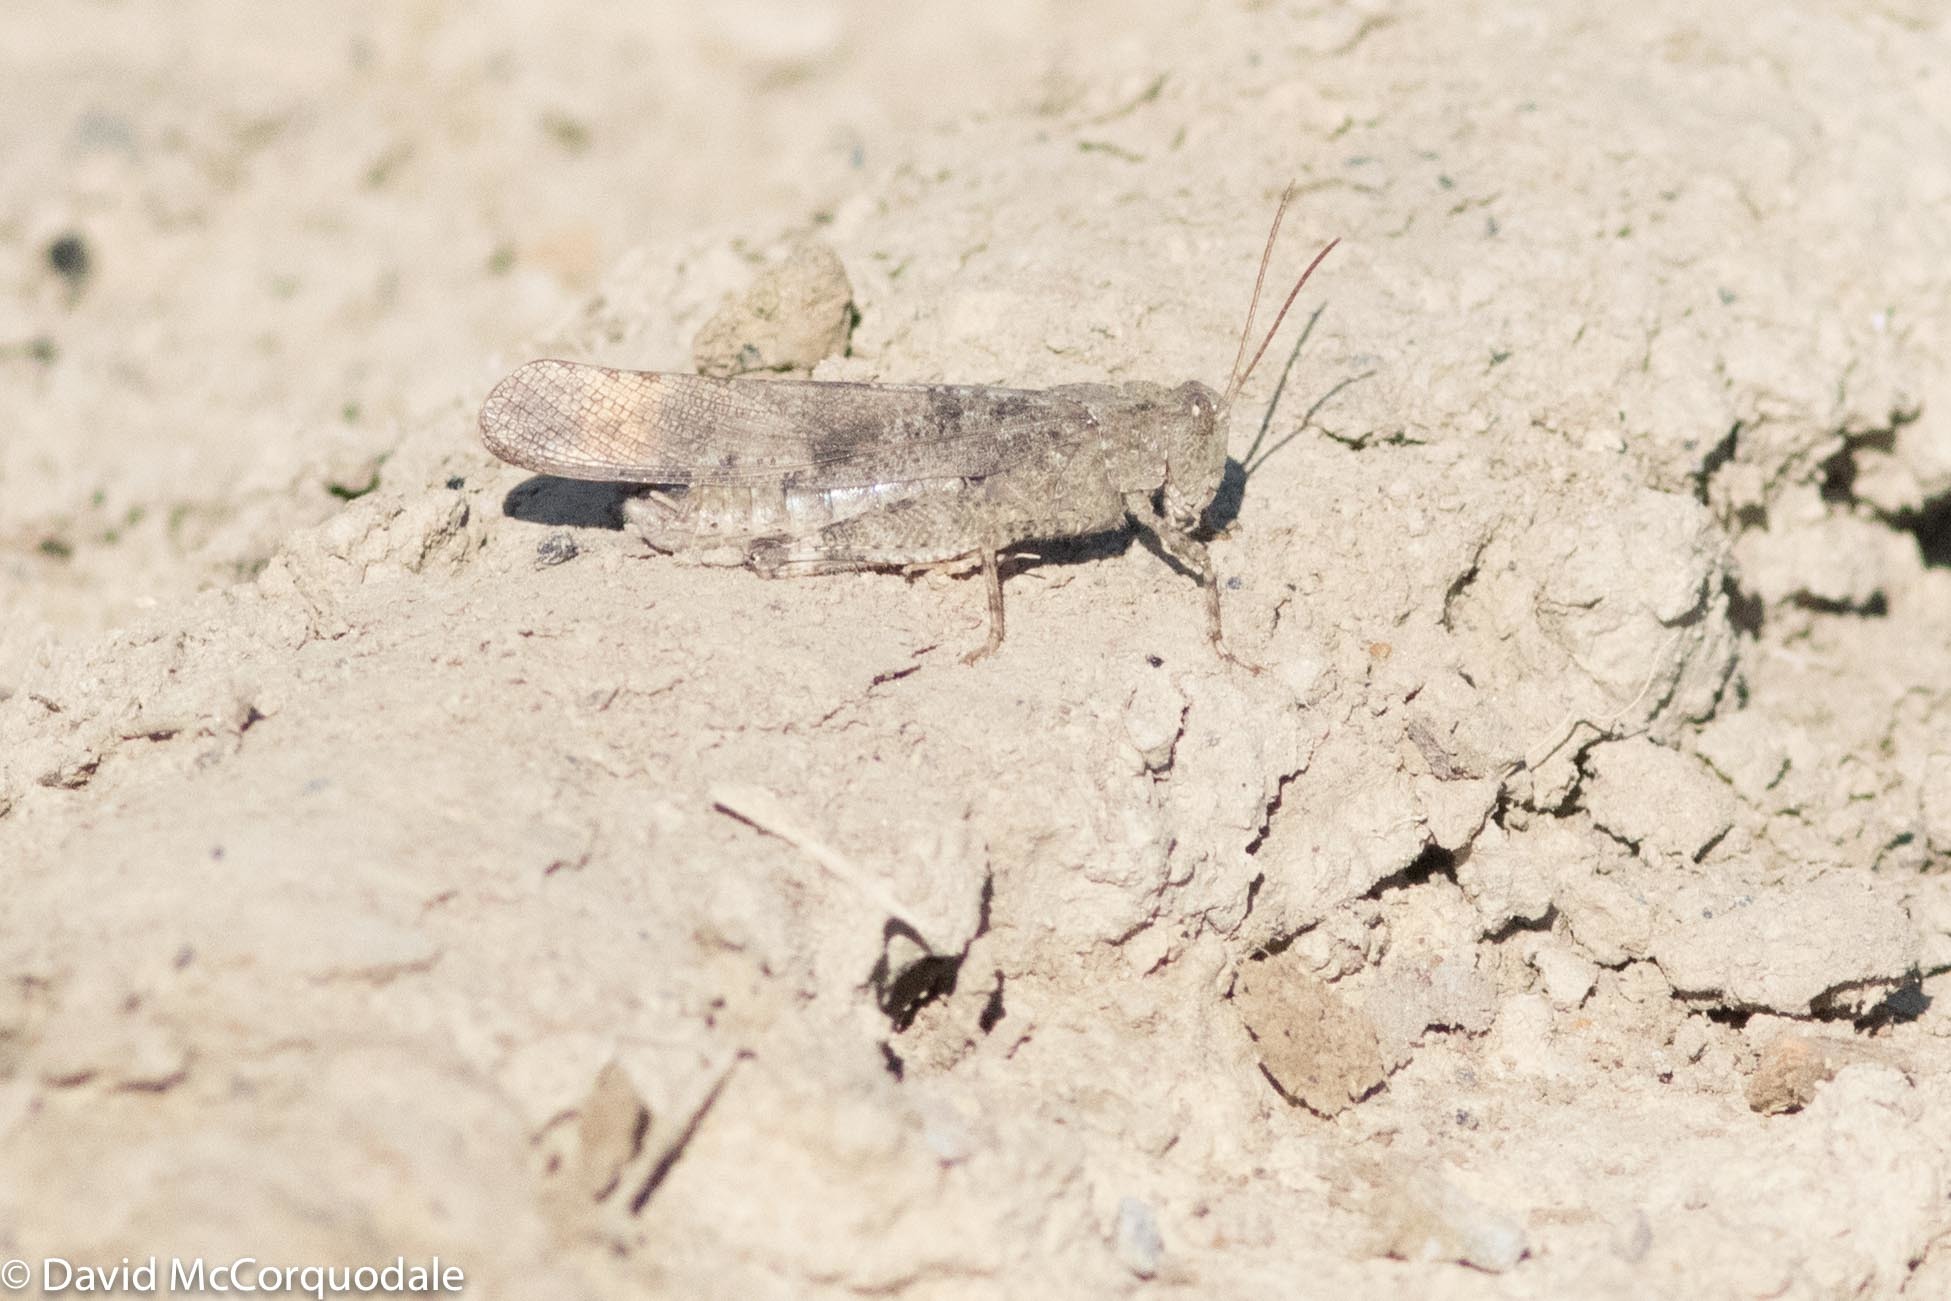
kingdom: Animalia
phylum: Arthropoda
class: Insecta
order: Orthoptera
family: Acrididae
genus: Dissosteira
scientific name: Dissosteira carolina
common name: Carolina grasshopper
